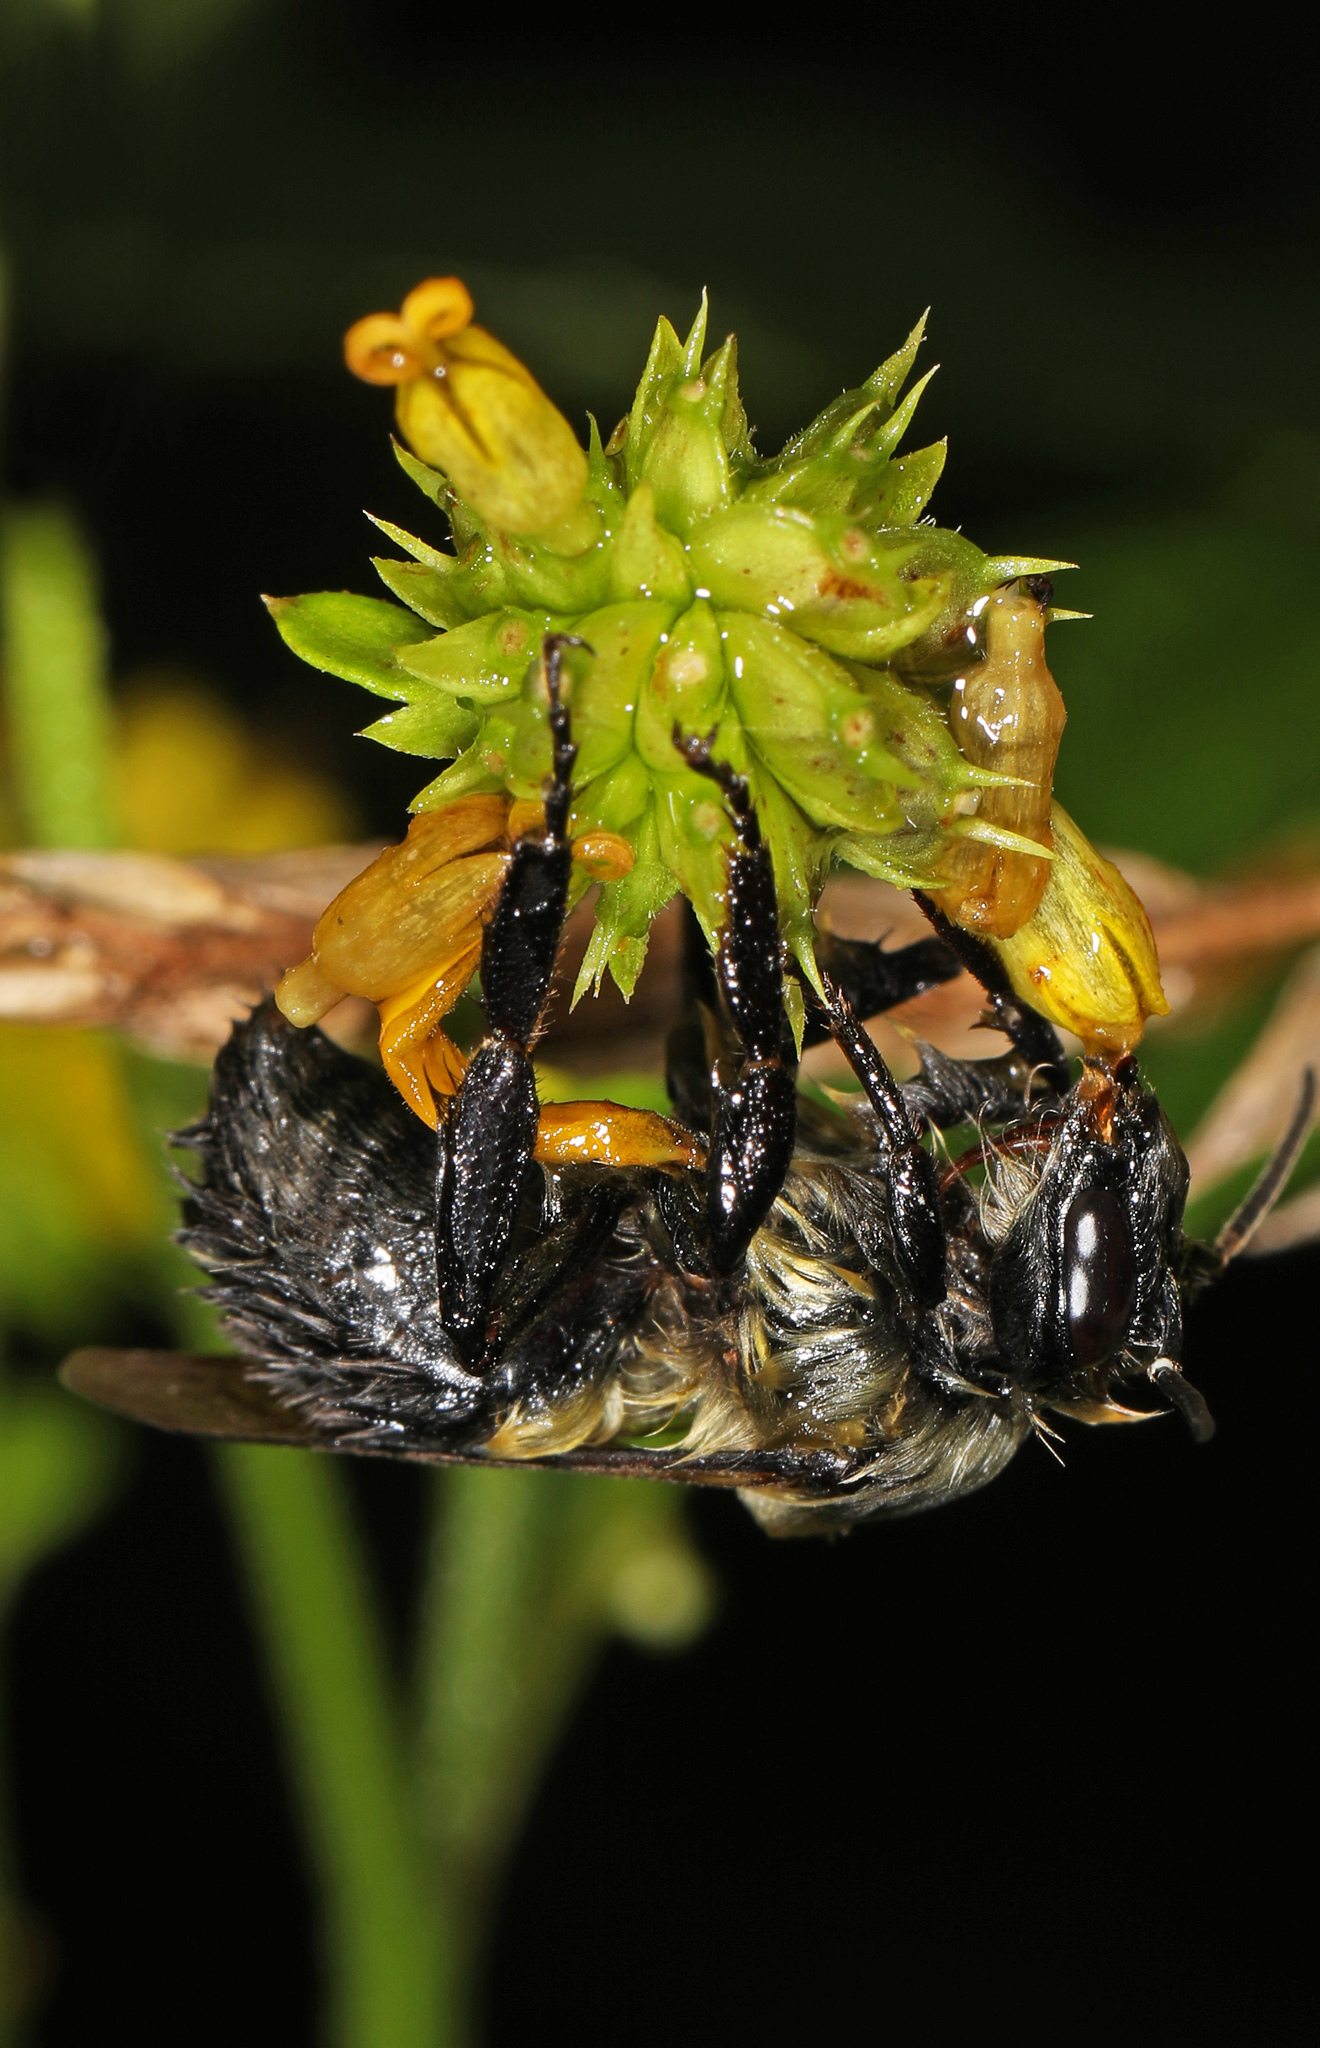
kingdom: Animalia
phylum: Arthropoda
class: Insecta
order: Hymenoptera
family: Apidae
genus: Bombus
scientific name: Bombus impatiens
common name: Common eastern bumble bee
